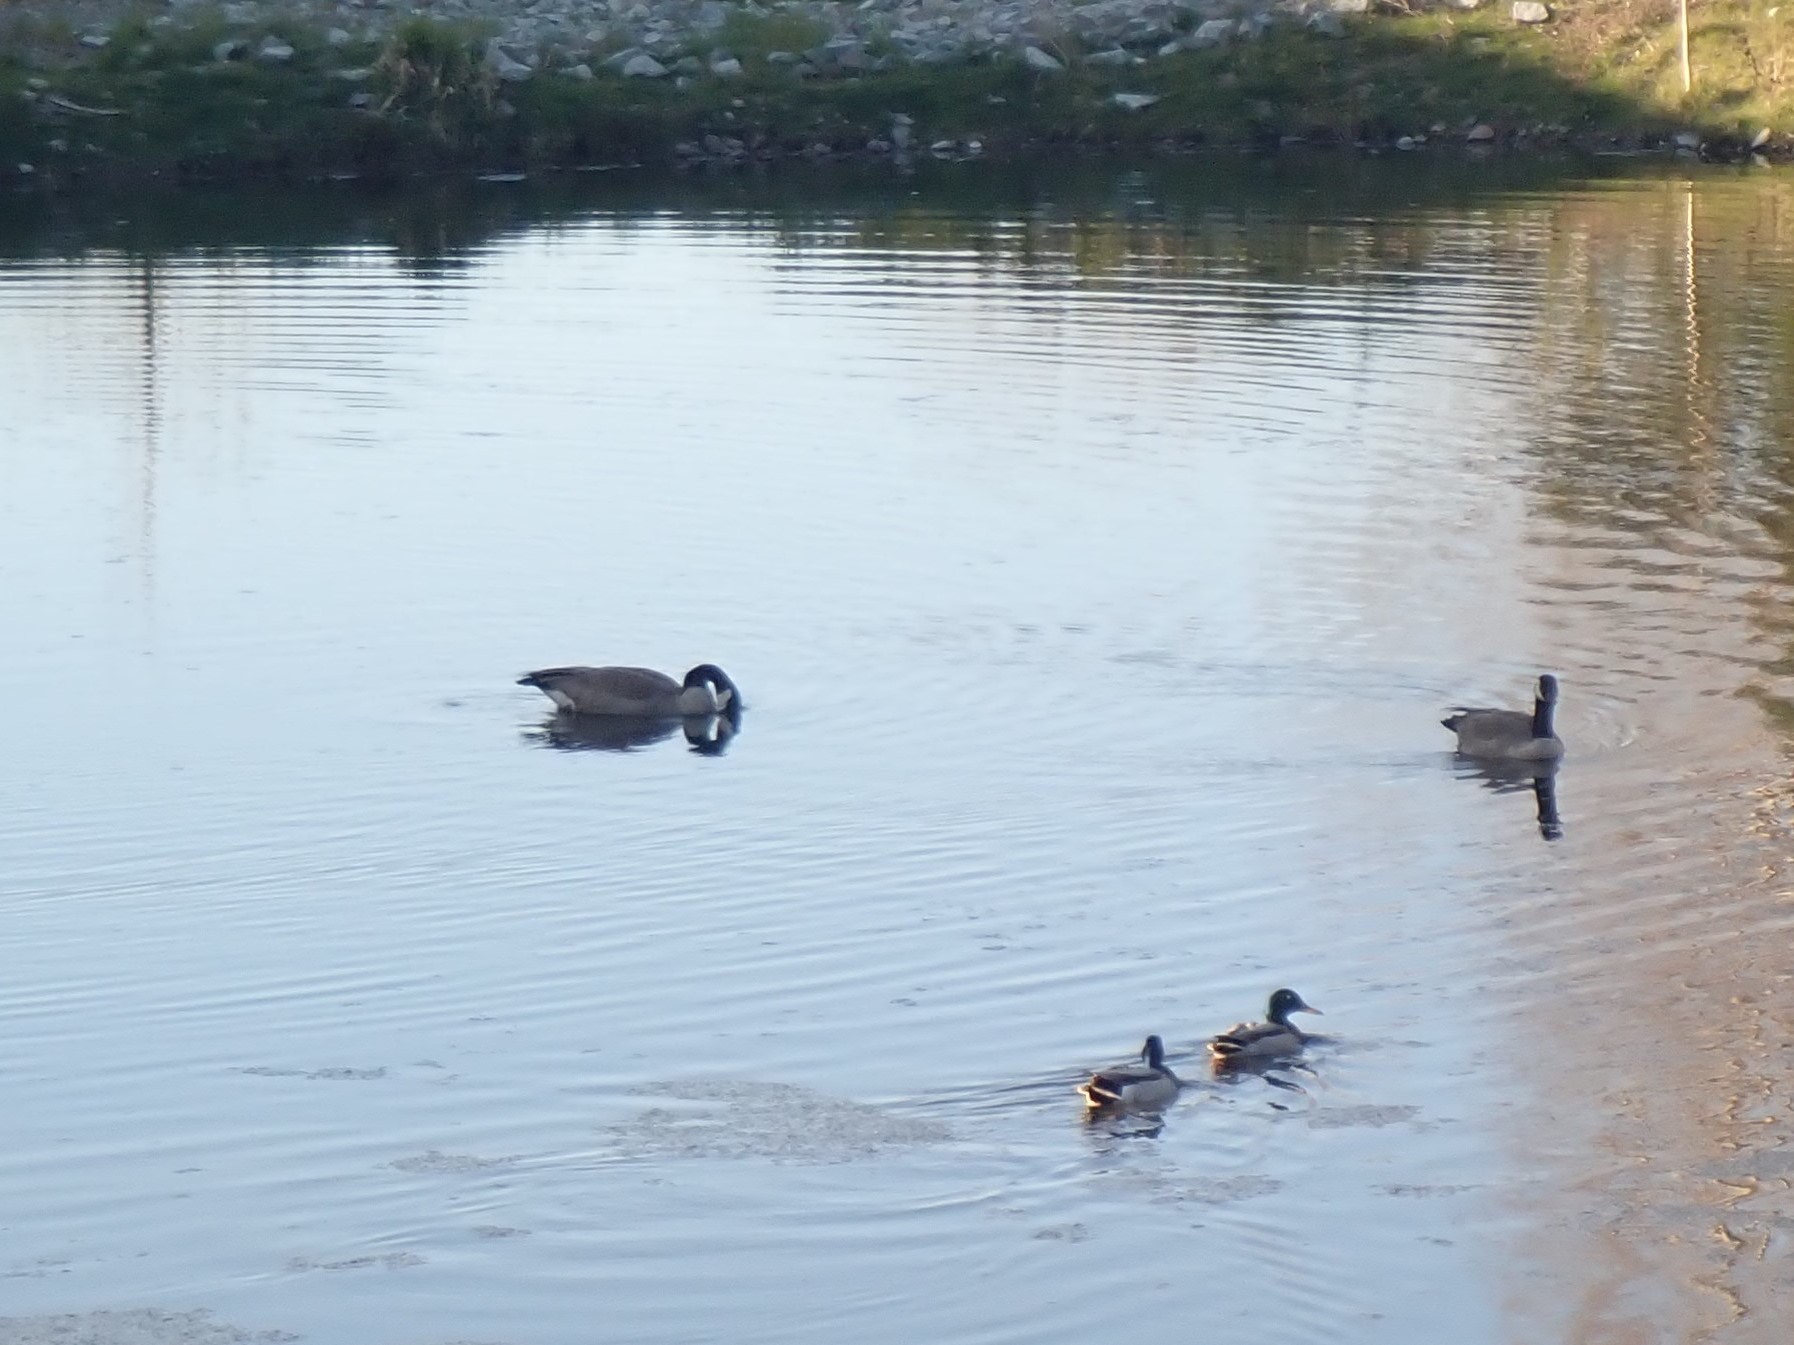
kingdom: Animalia
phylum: Chordata
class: Aves
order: Anseriformes
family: Anatidae
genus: Branta
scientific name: Branta canadensis
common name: Canada goose
